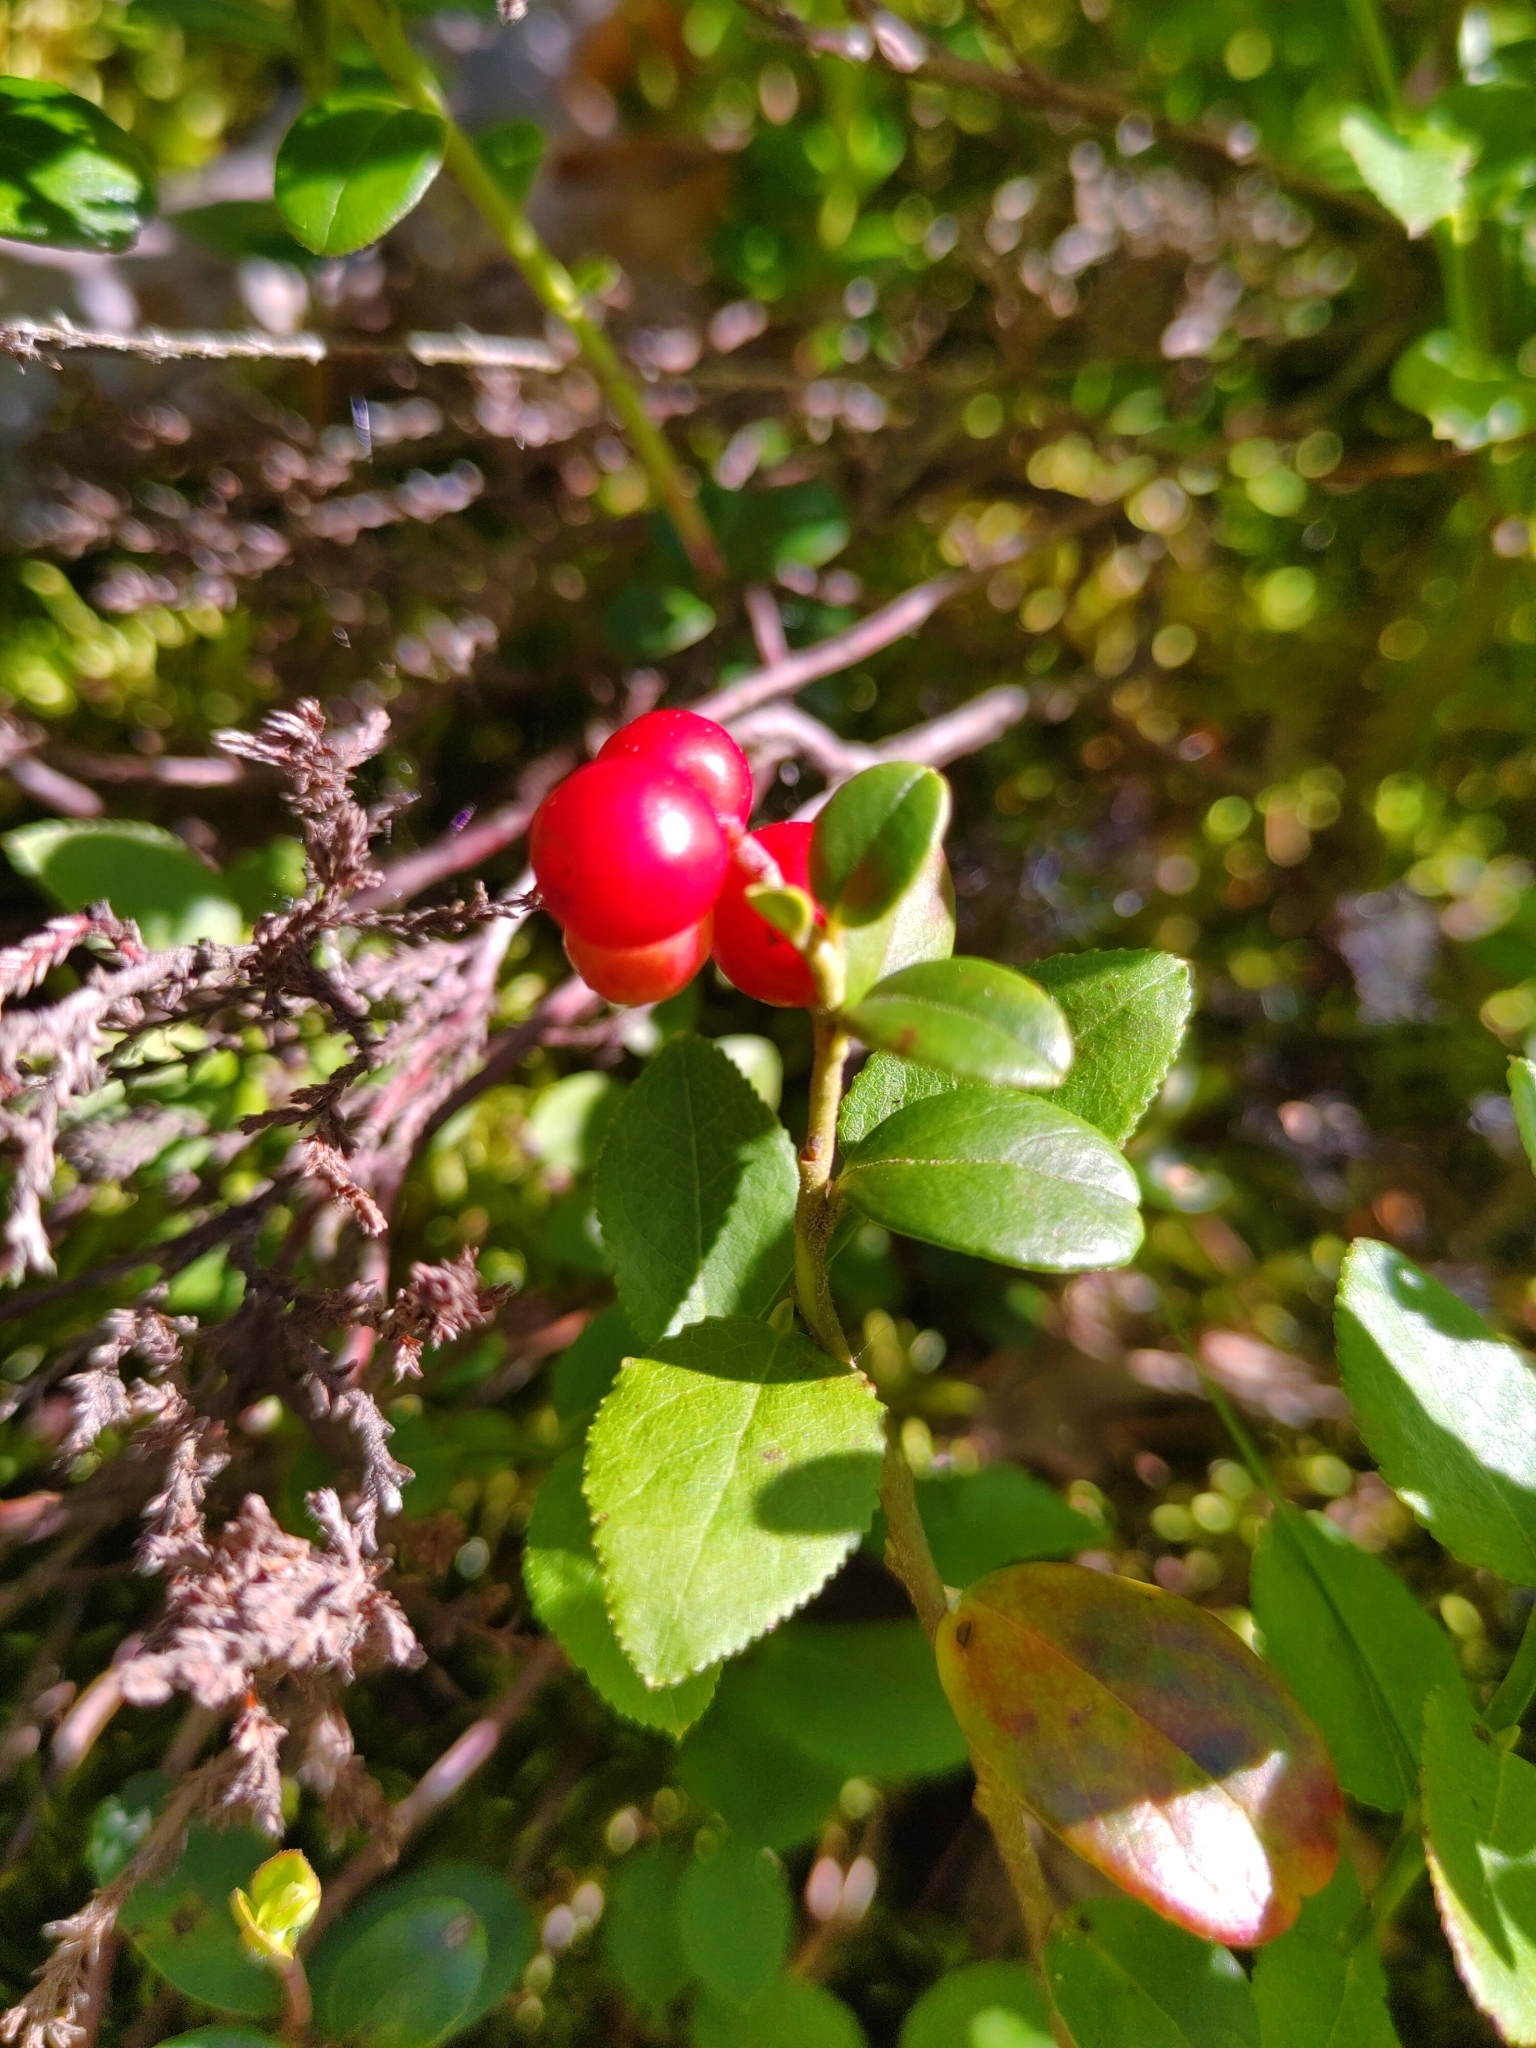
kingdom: Plantae
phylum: Tracheophyta
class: Magnoliopsida
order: Ericales
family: Ericaceae
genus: Vaccinium
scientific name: Vaccinium vitis-idaea
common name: Cowberry
